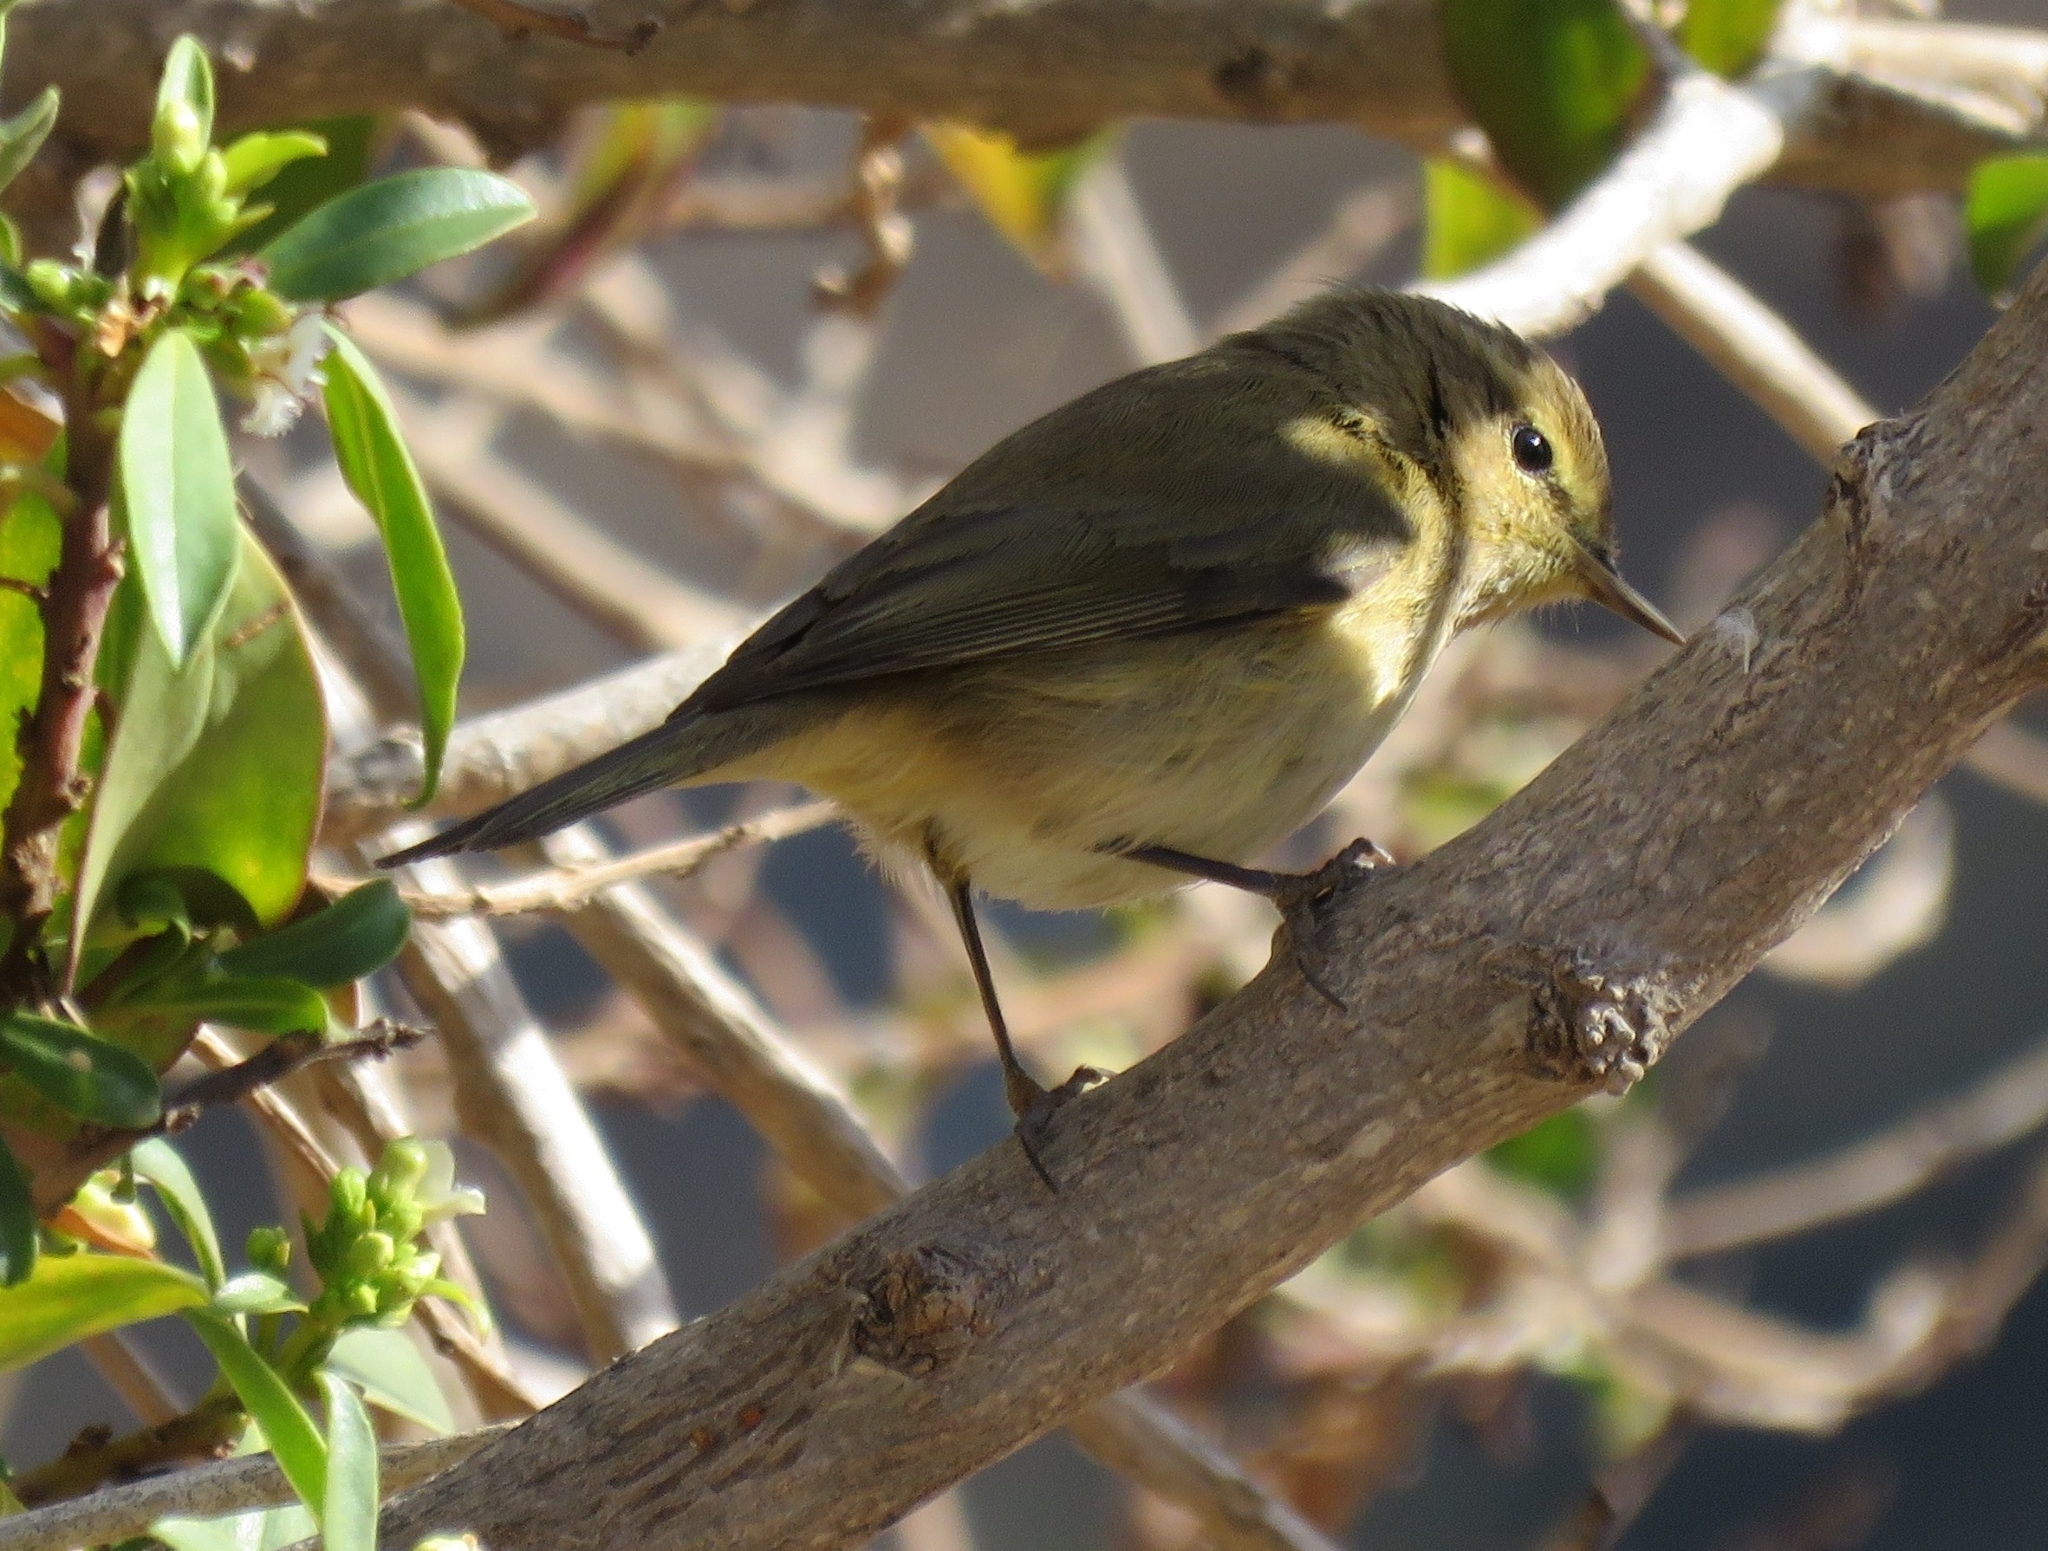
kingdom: Animalia
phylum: Chordata
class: Aves
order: Passeriformes
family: Phylloscopidae
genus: Phylloscopus
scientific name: Phylloscopus collybita
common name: Common chiffchaff
